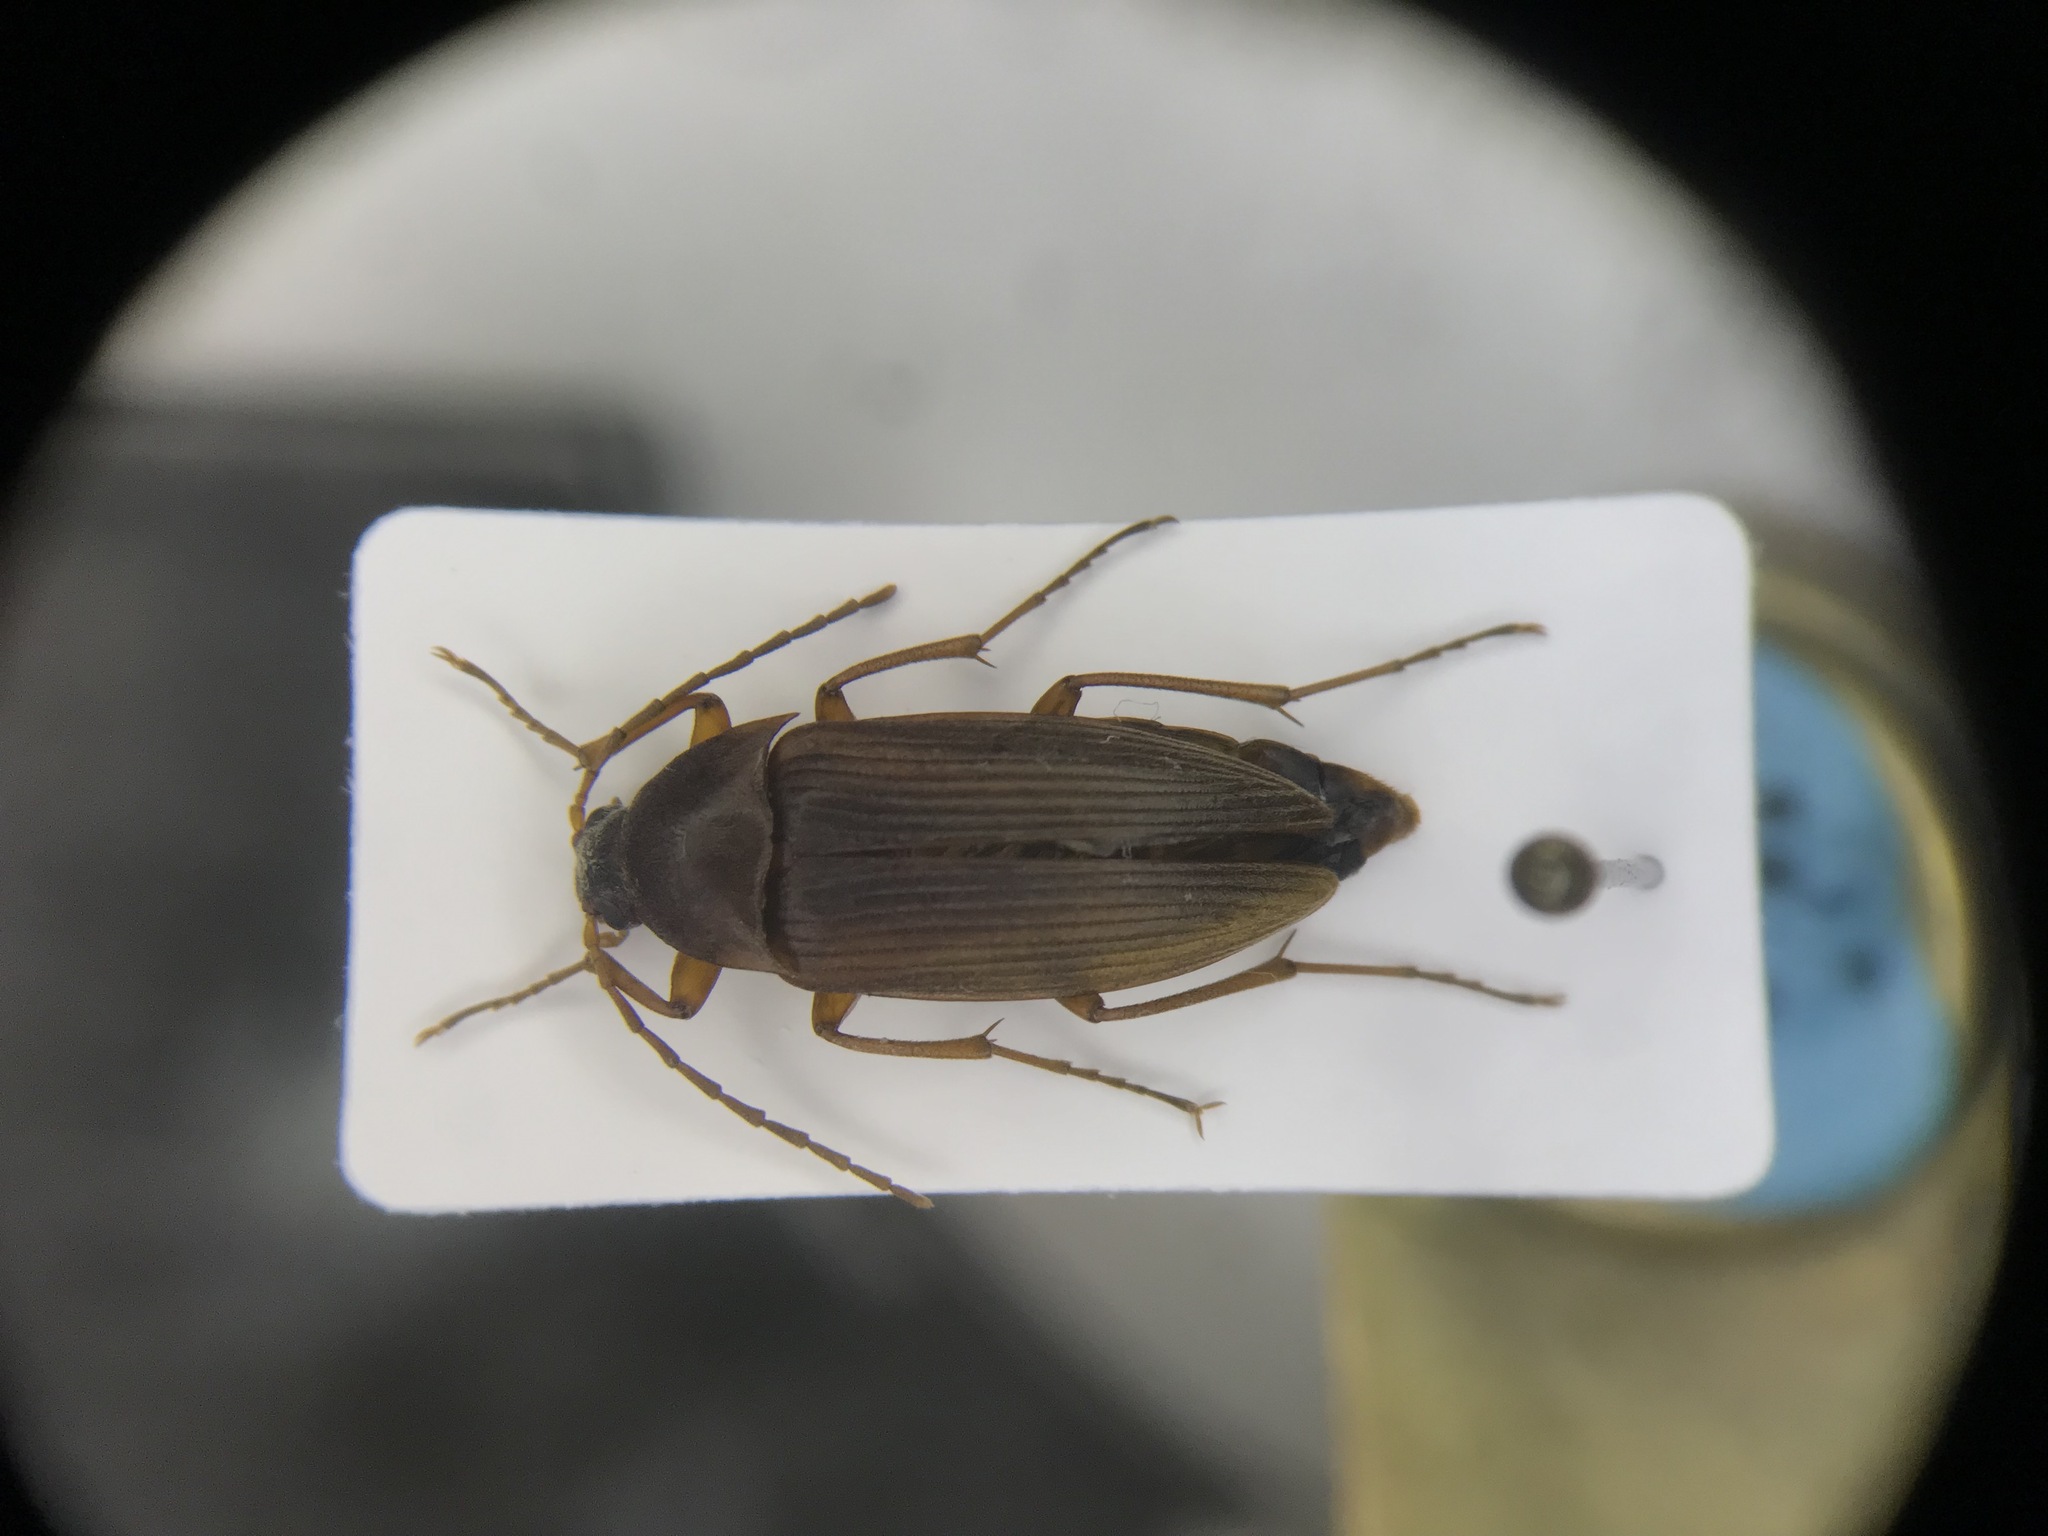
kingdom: Animalia
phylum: Arthropoda
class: Insecta
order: Coleoptera
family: Tenebrionidae
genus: Androchirus
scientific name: Androchirus erythropus
